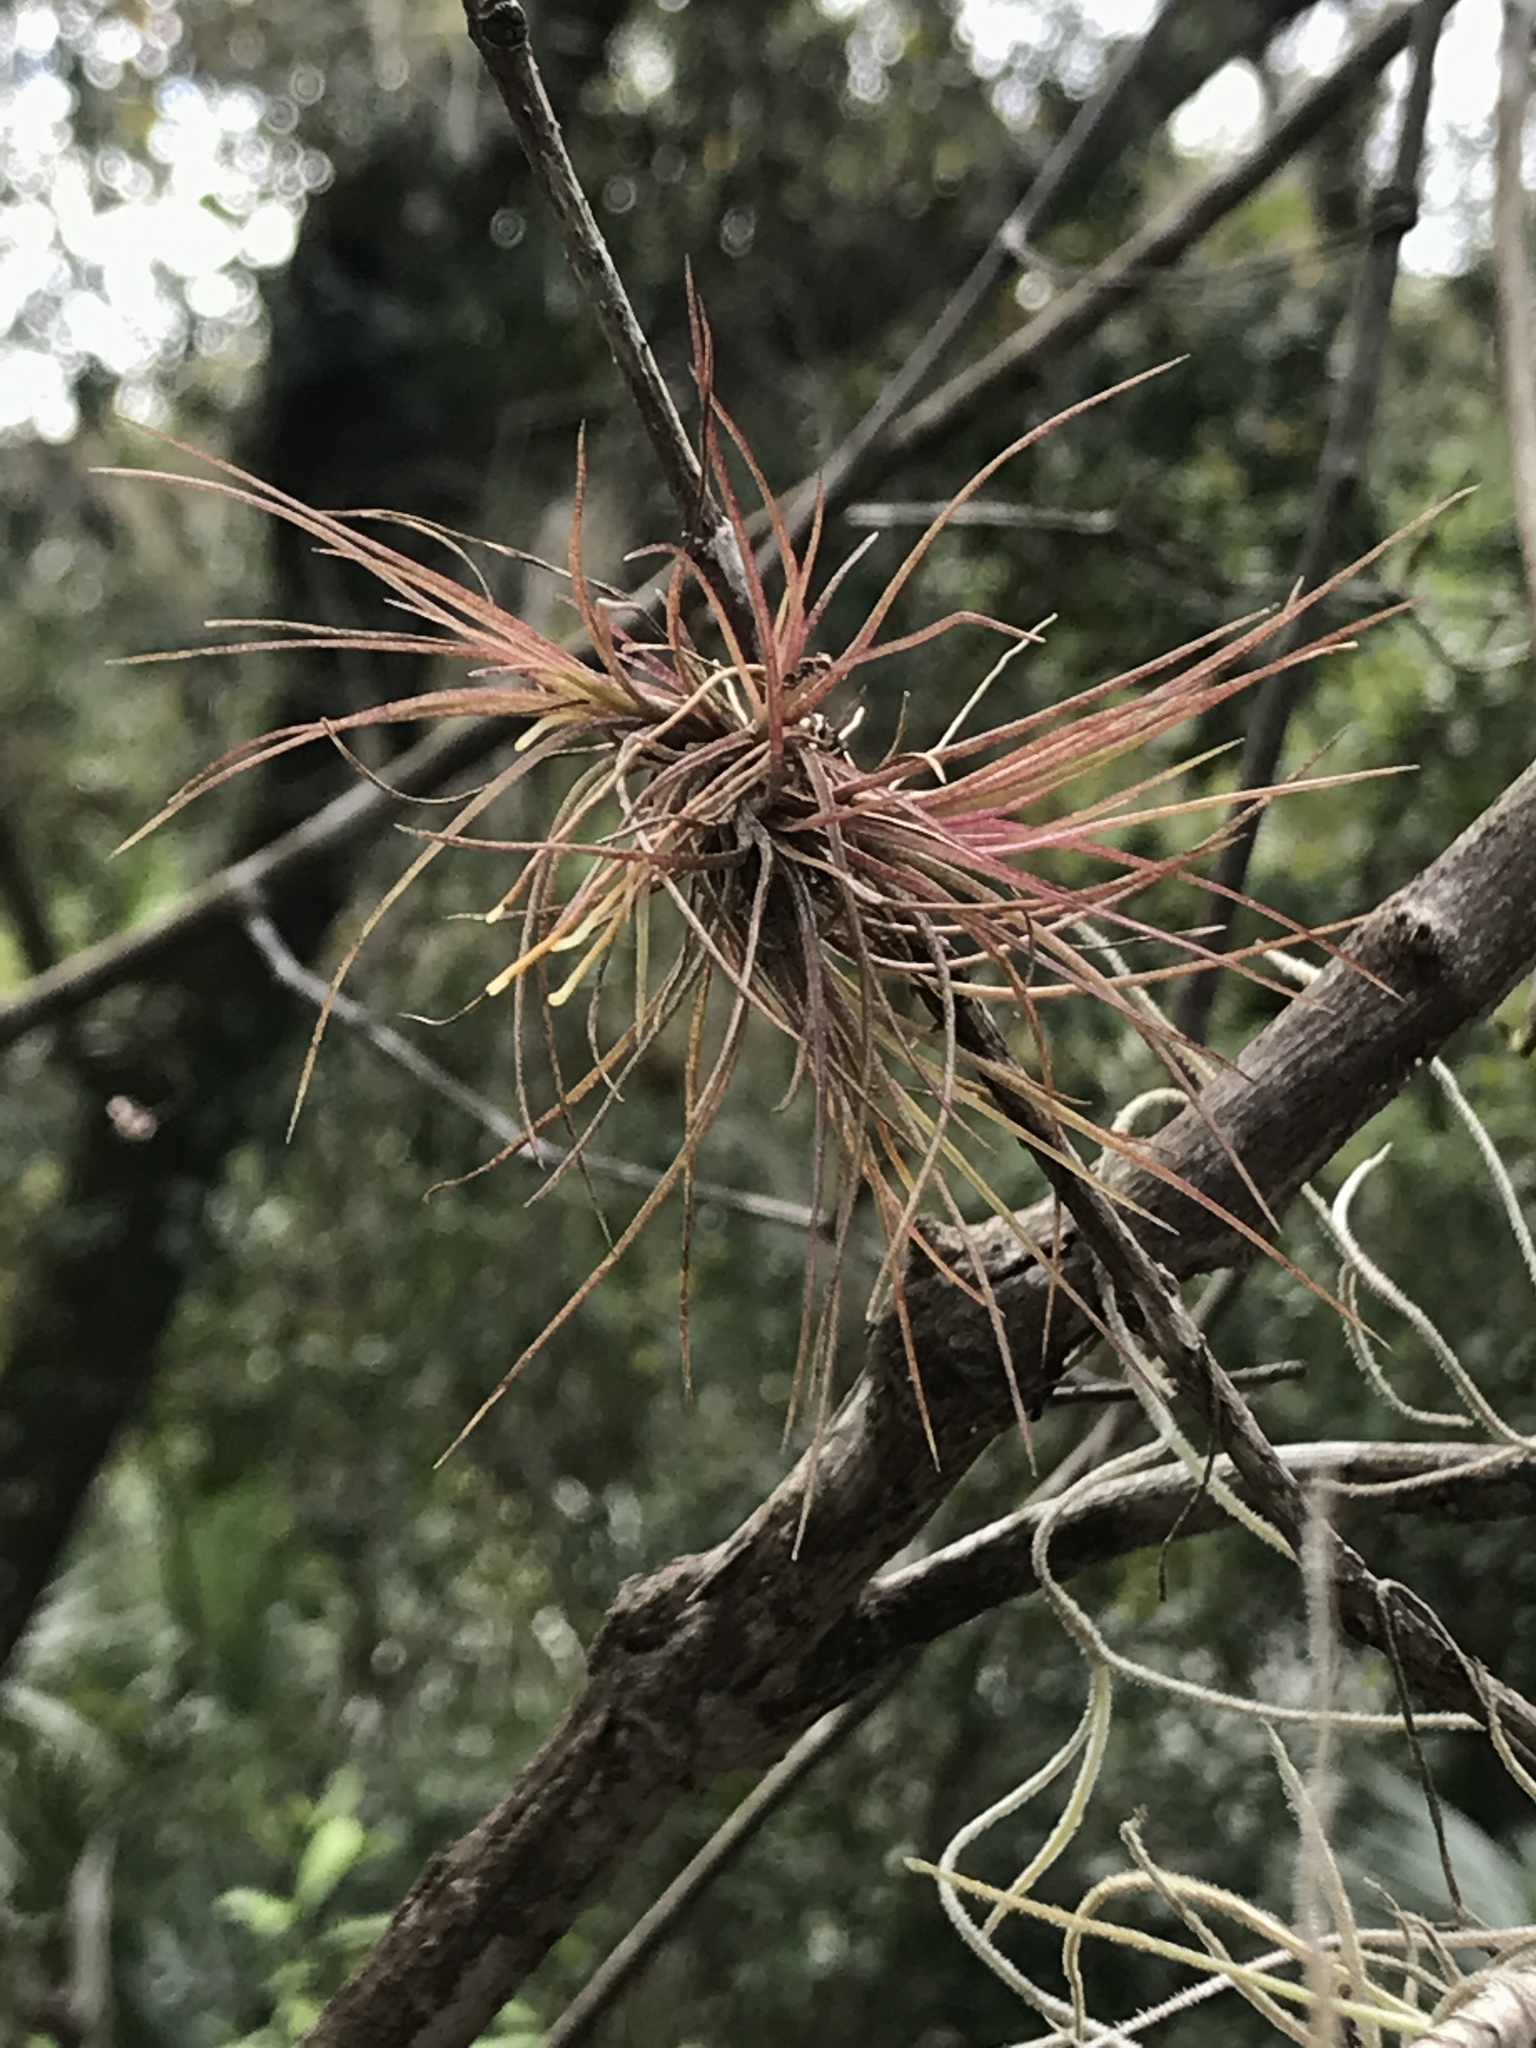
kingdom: Plantae
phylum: Tracheophyta
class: Liliopsida
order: Poales
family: Bromeliaceae
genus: Tillandsia
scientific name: Tillandsia setacea
